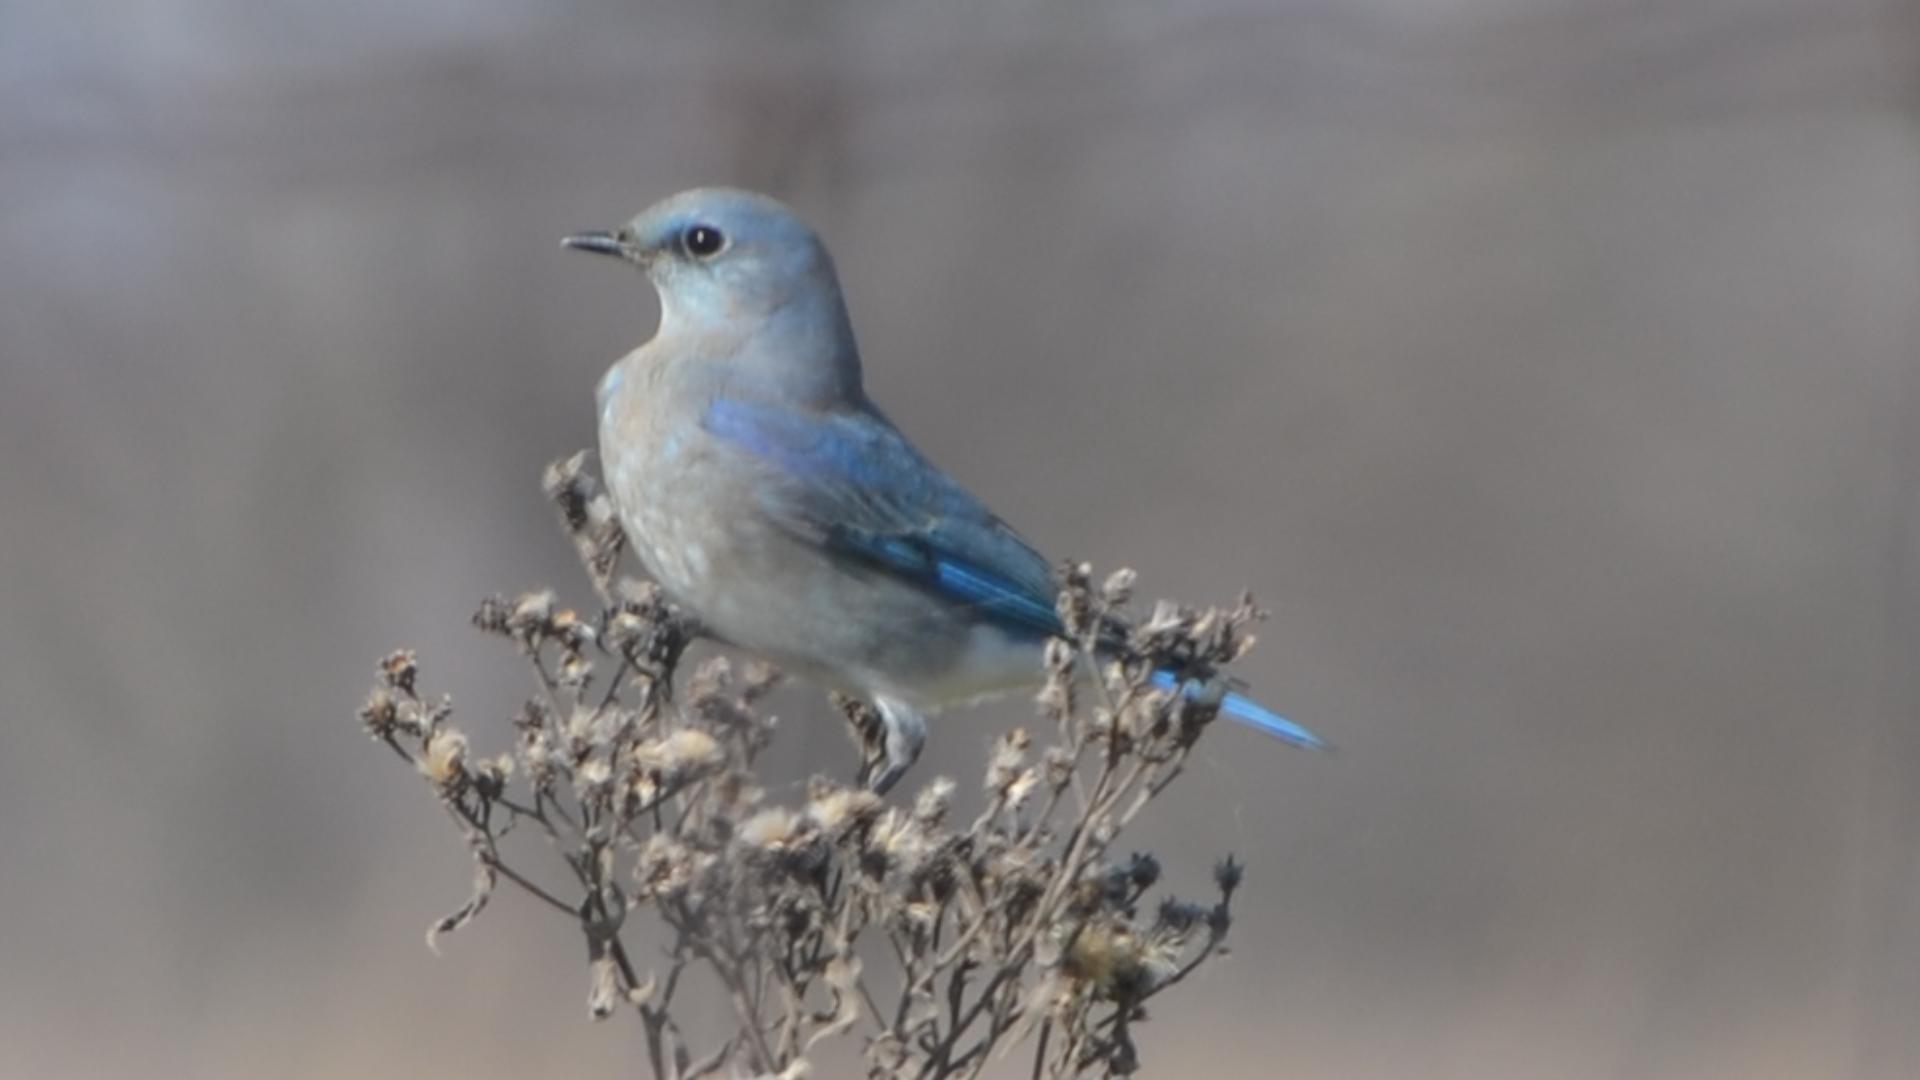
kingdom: Animalia
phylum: Chordata
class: Aves
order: Passeriformes
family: Turdidae
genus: Sialia
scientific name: Sialia currucoides
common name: Mountain bluebird
